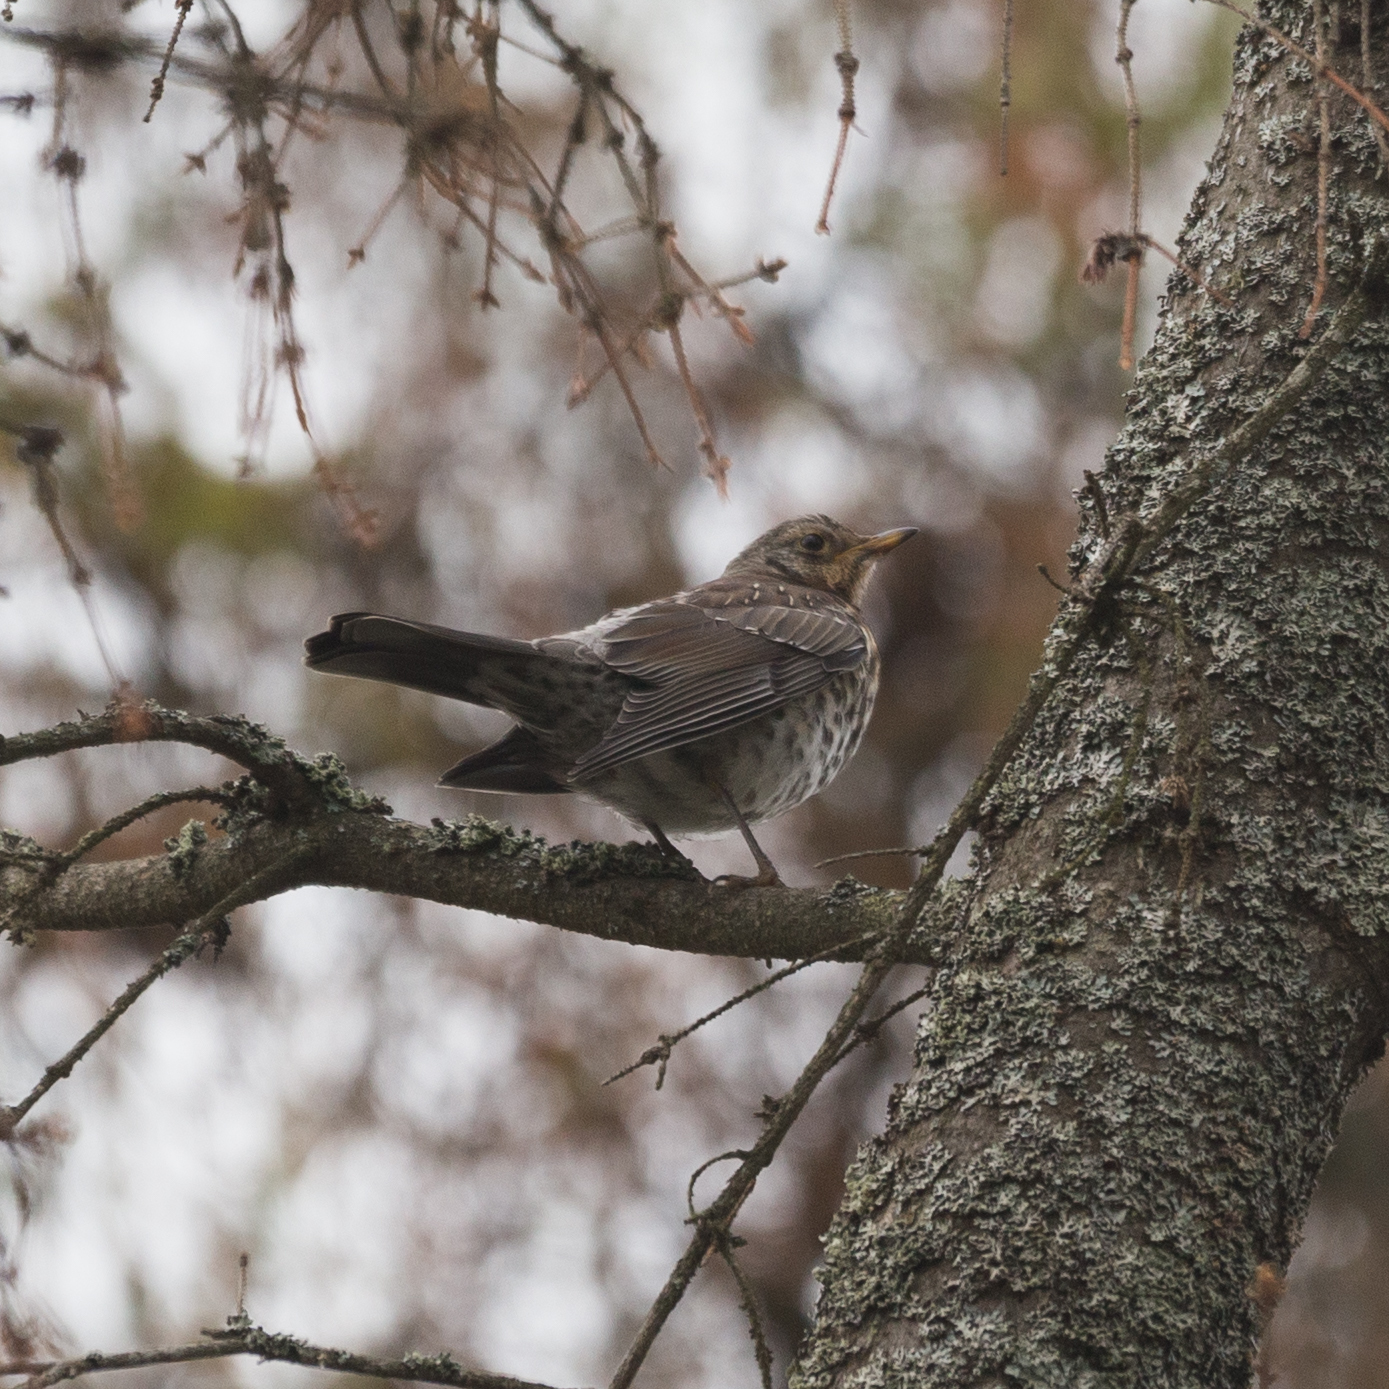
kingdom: Animalia
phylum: Chordata
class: Aves
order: Passeriformes
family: Turdidae
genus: Turdus
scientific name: Turdus pilaris
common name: Fieldfare
